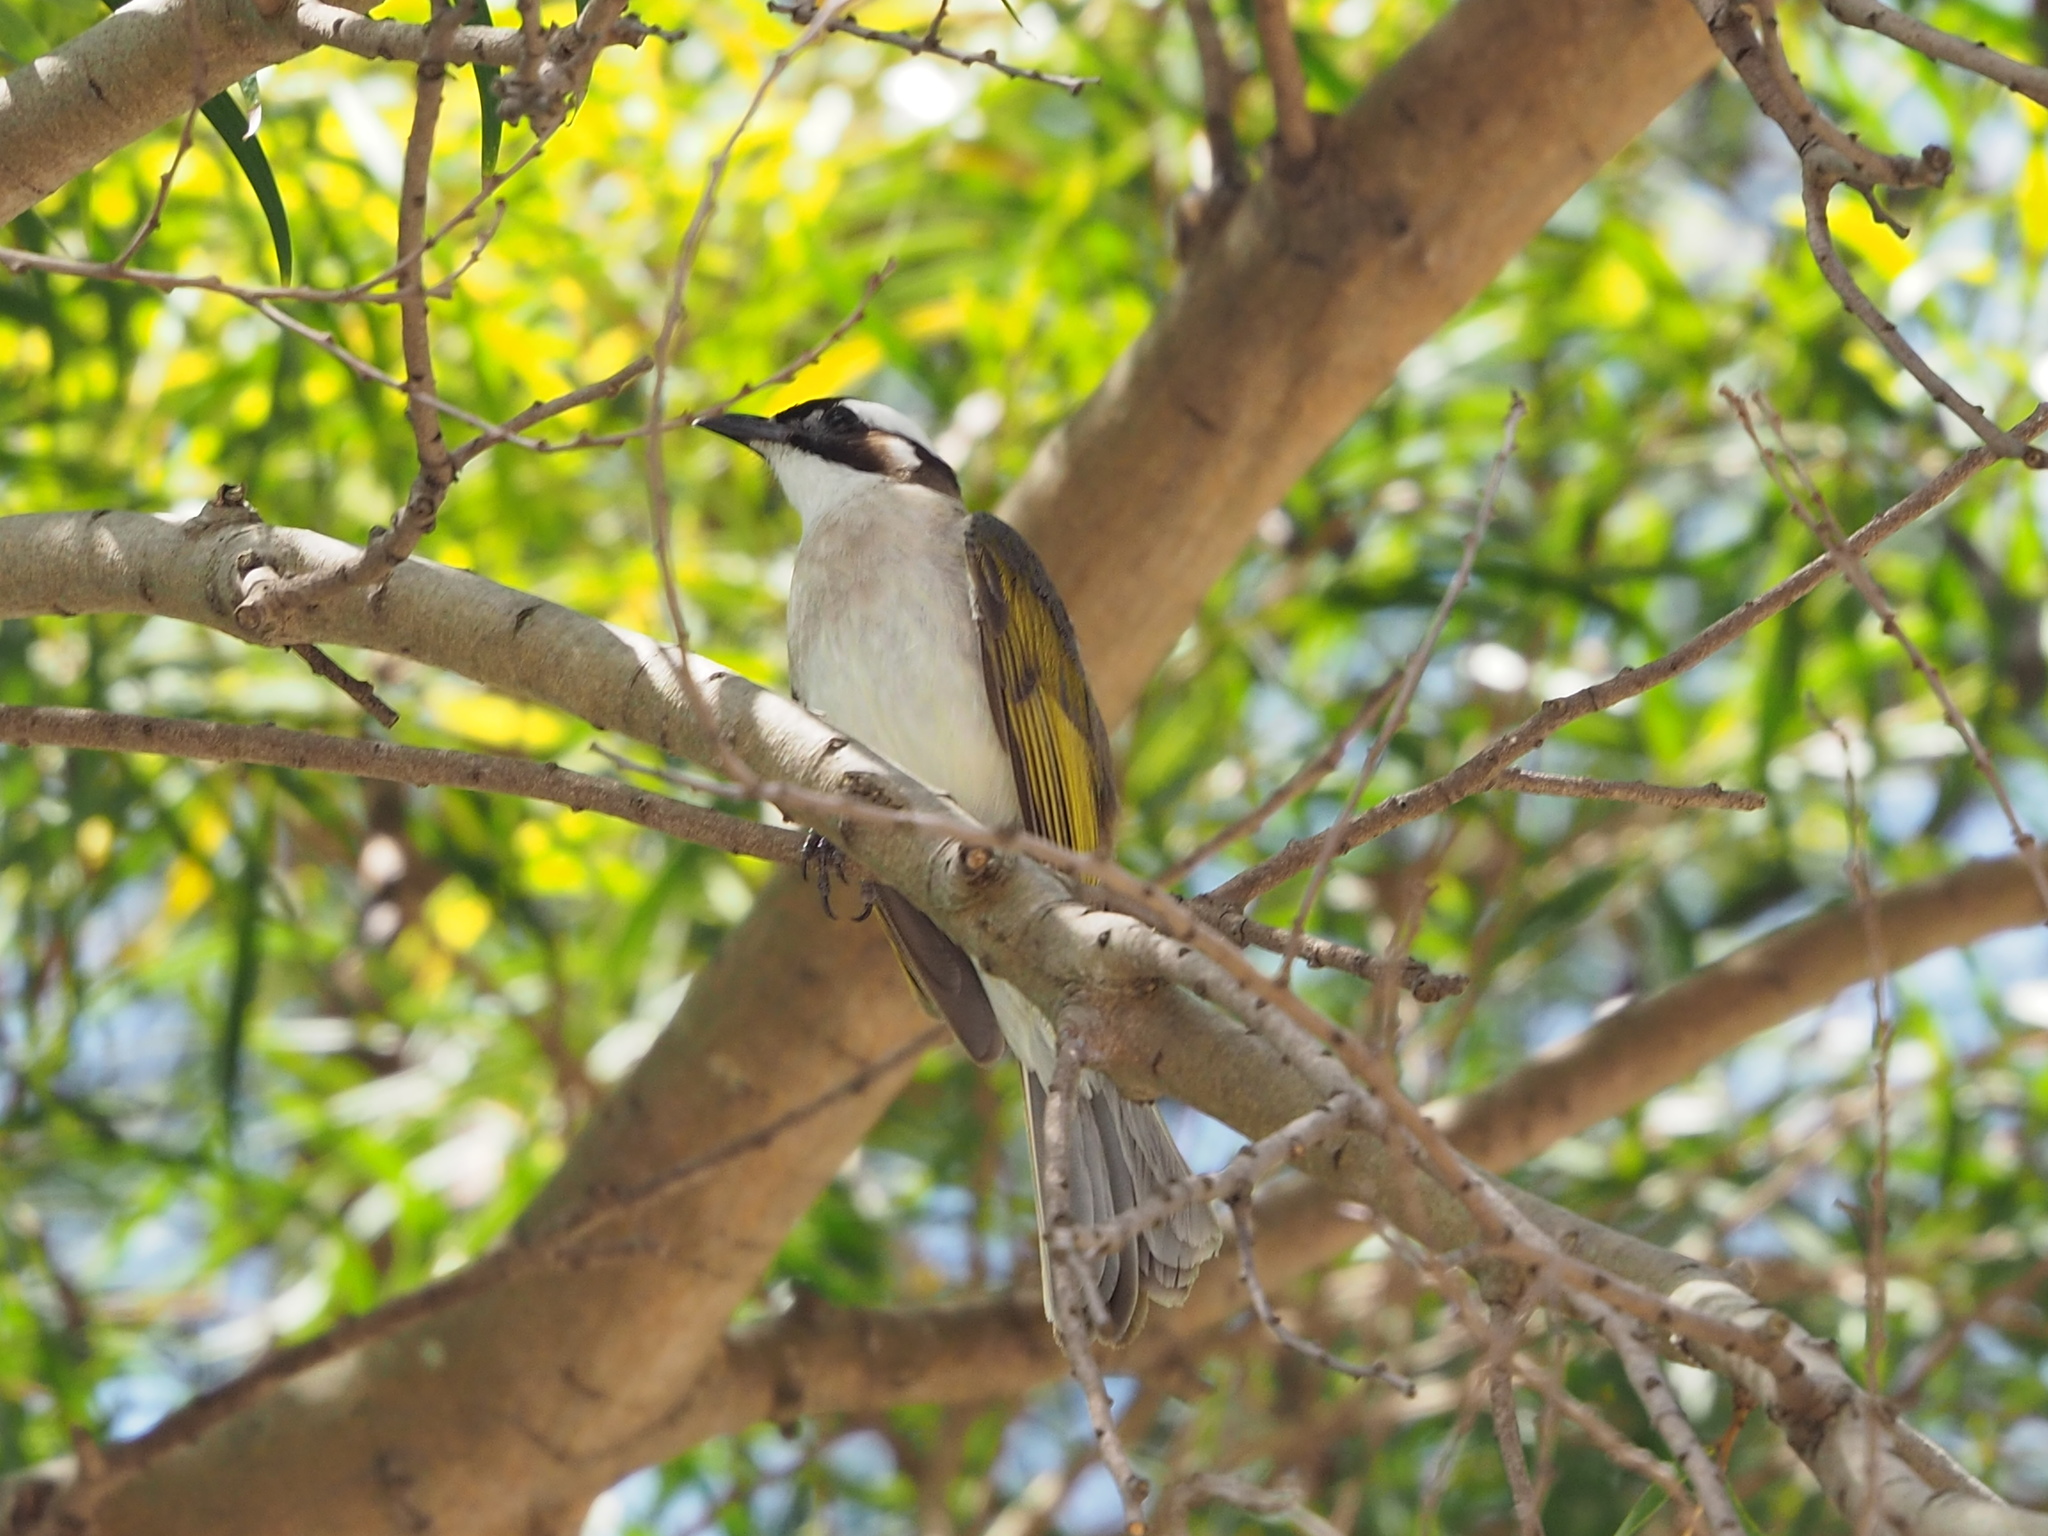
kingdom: Animalia
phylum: Chordata
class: Aves
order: Passeriformes
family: Pycnonotidae
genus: Pycnonotus
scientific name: Pycnonotus sinensis
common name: Light-vented bulbul
